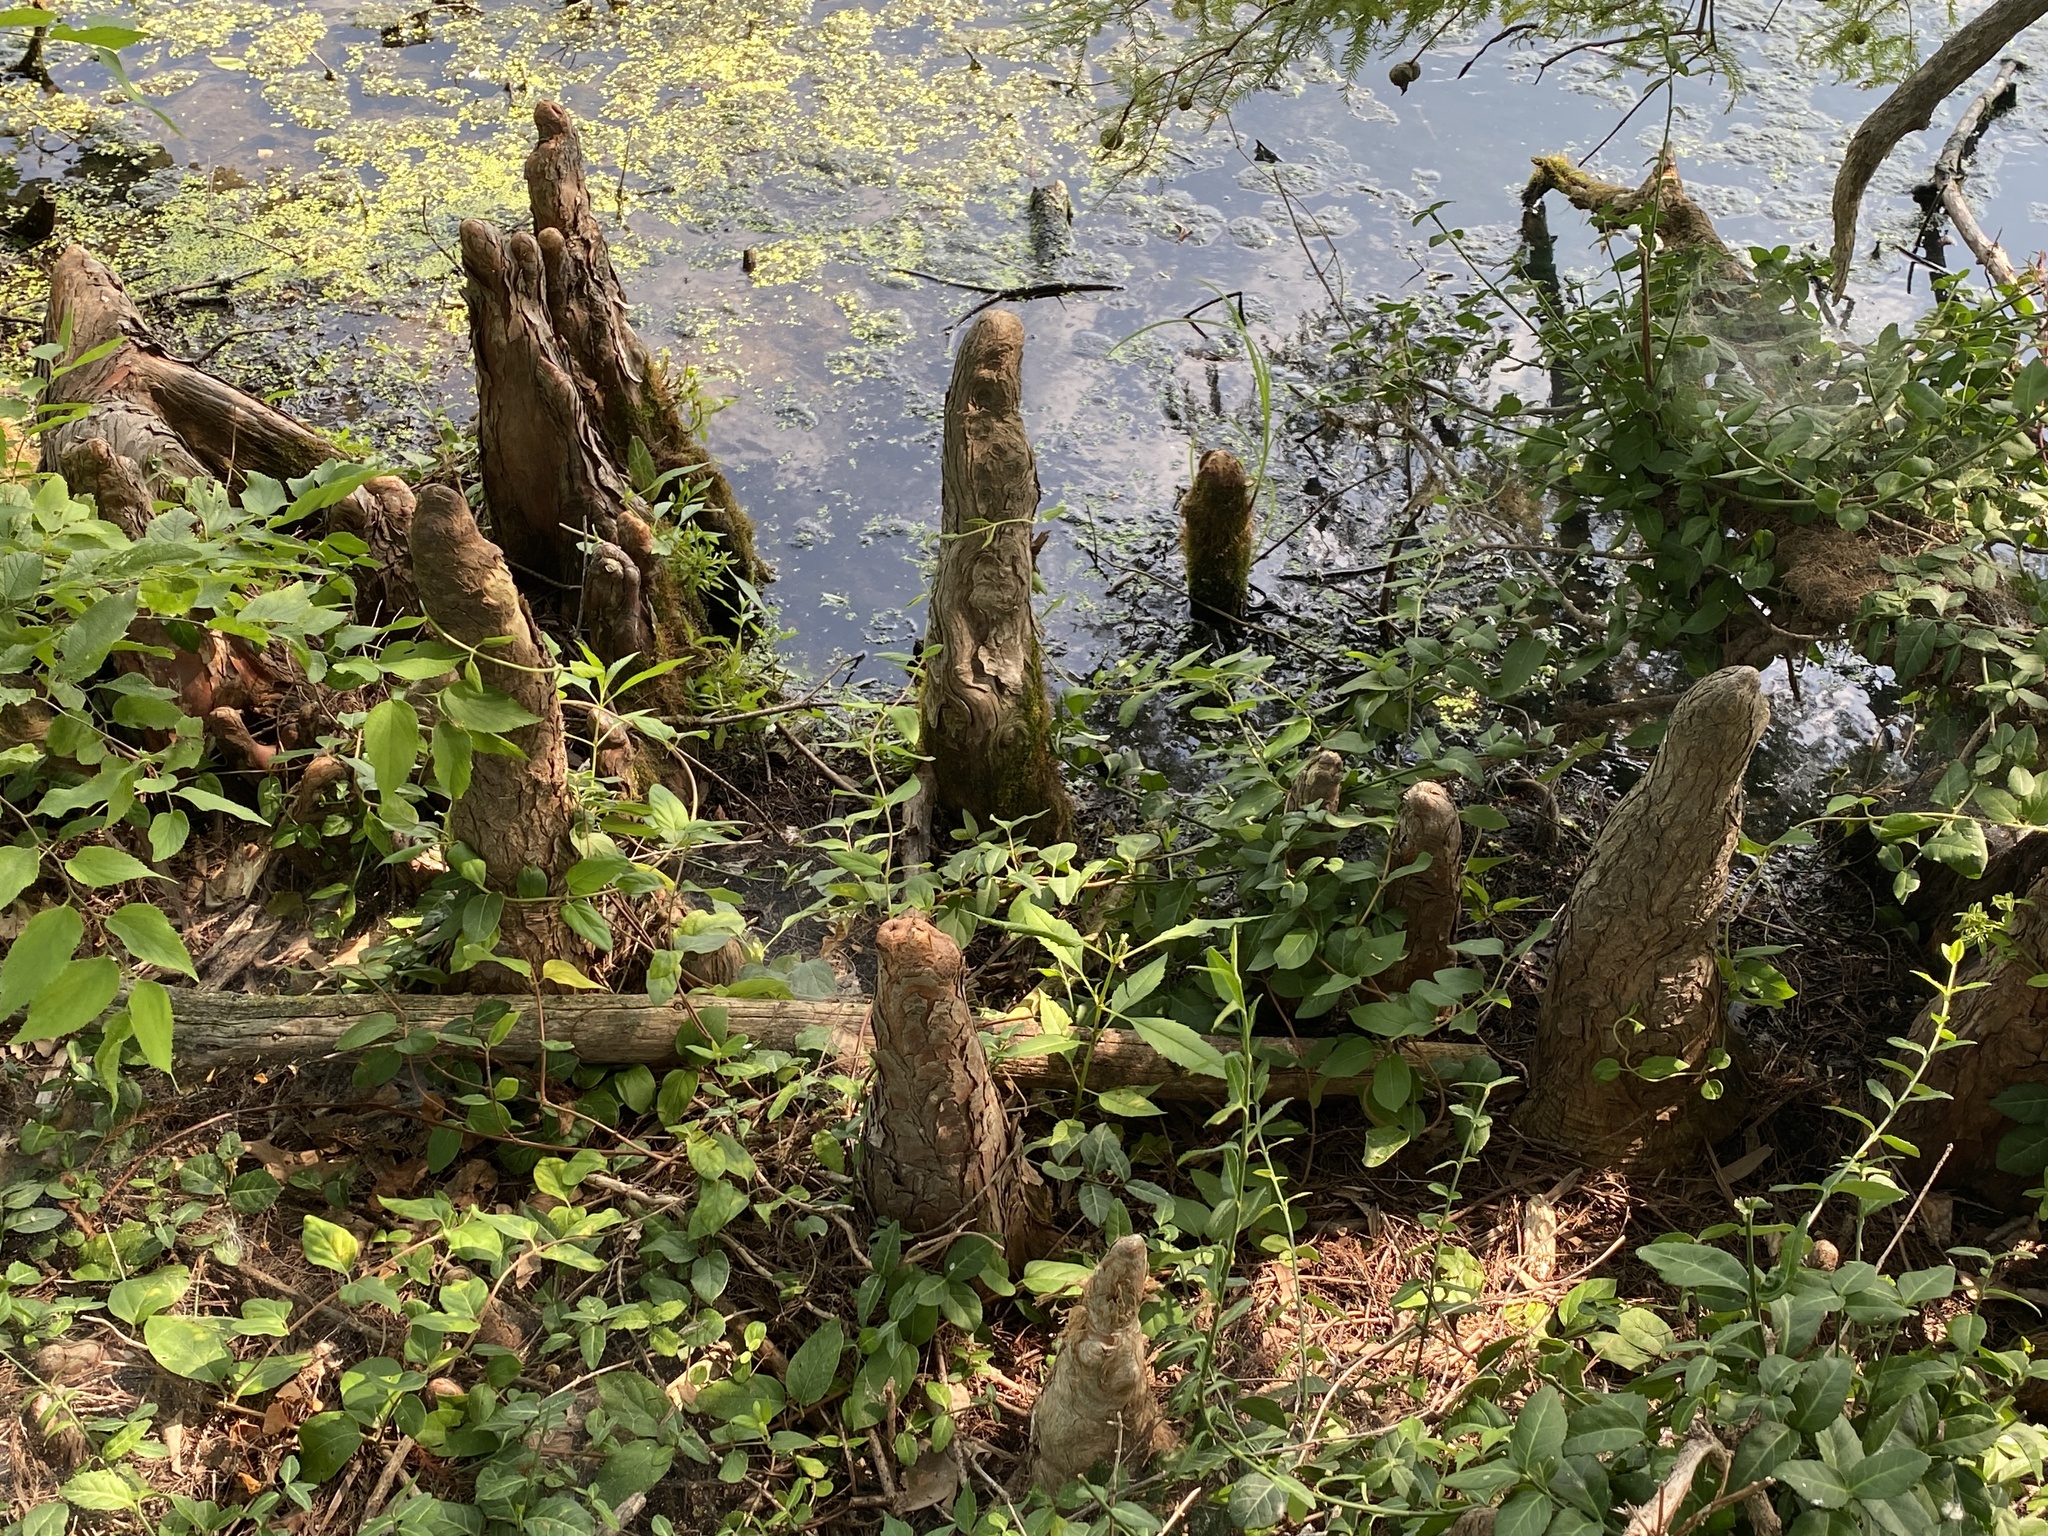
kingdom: Plantae
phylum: Tracheophyta
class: Pinopsida
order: Pinales
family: Cupressaceae
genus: Taxodium
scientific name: Taxodium distichum
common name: Bald cypress
